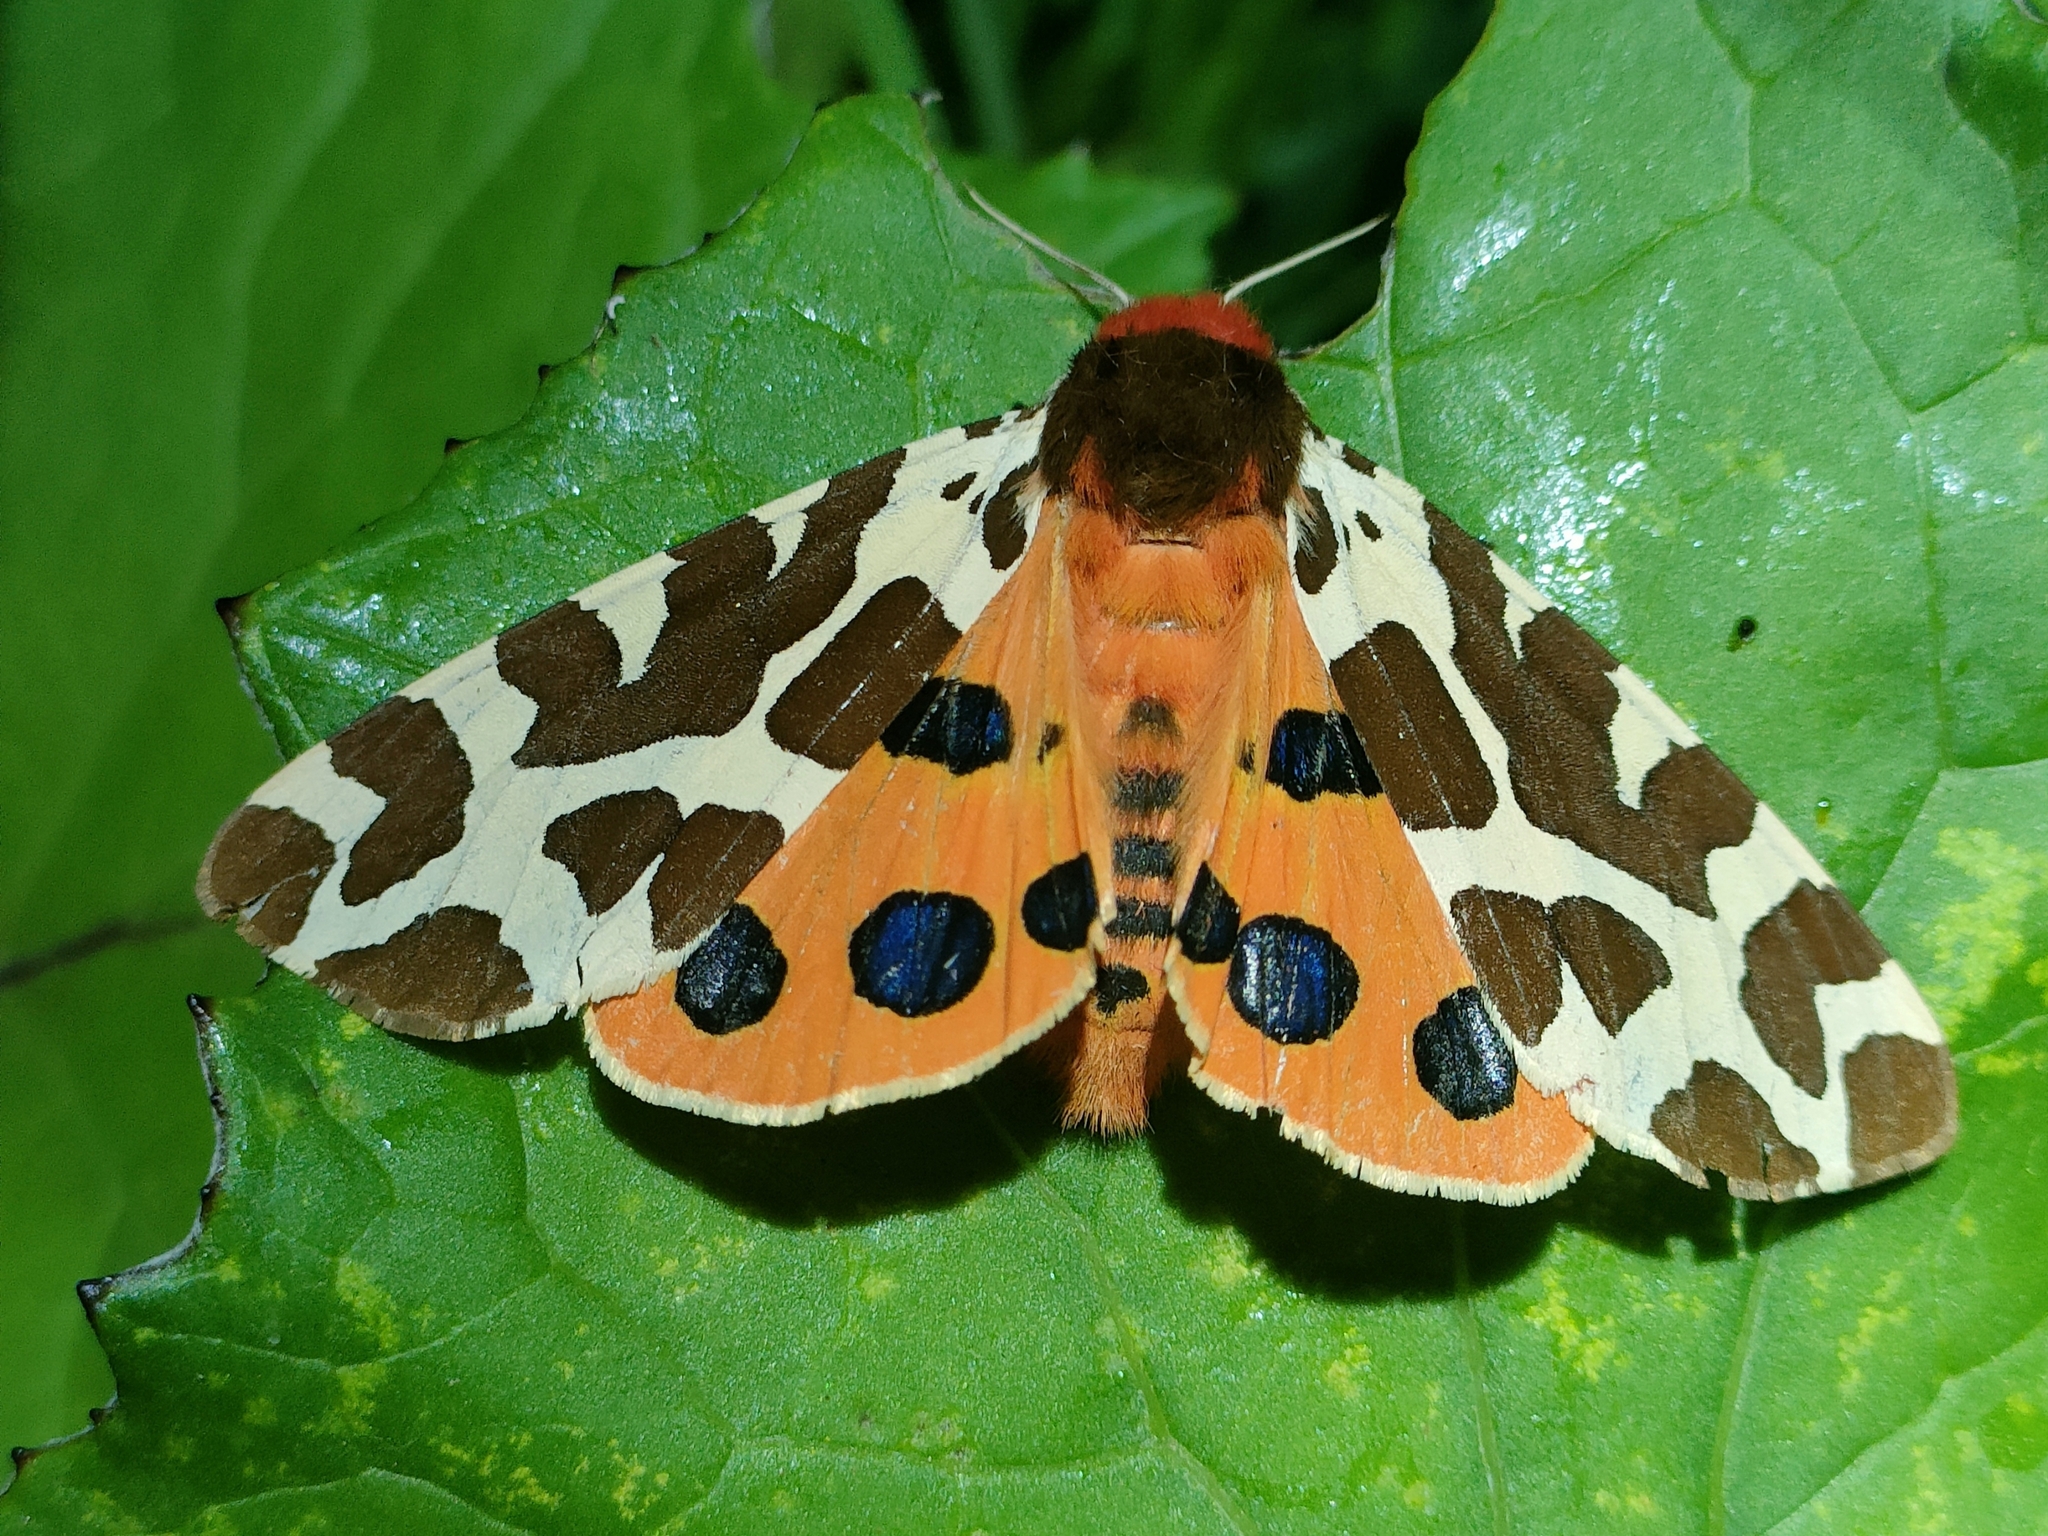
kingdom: Animalia
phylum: Arthropoda
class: Insecta
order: Lepidoptera
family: Erebidae
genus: Arctia
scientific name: Arctia caja
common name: Garden tiger
